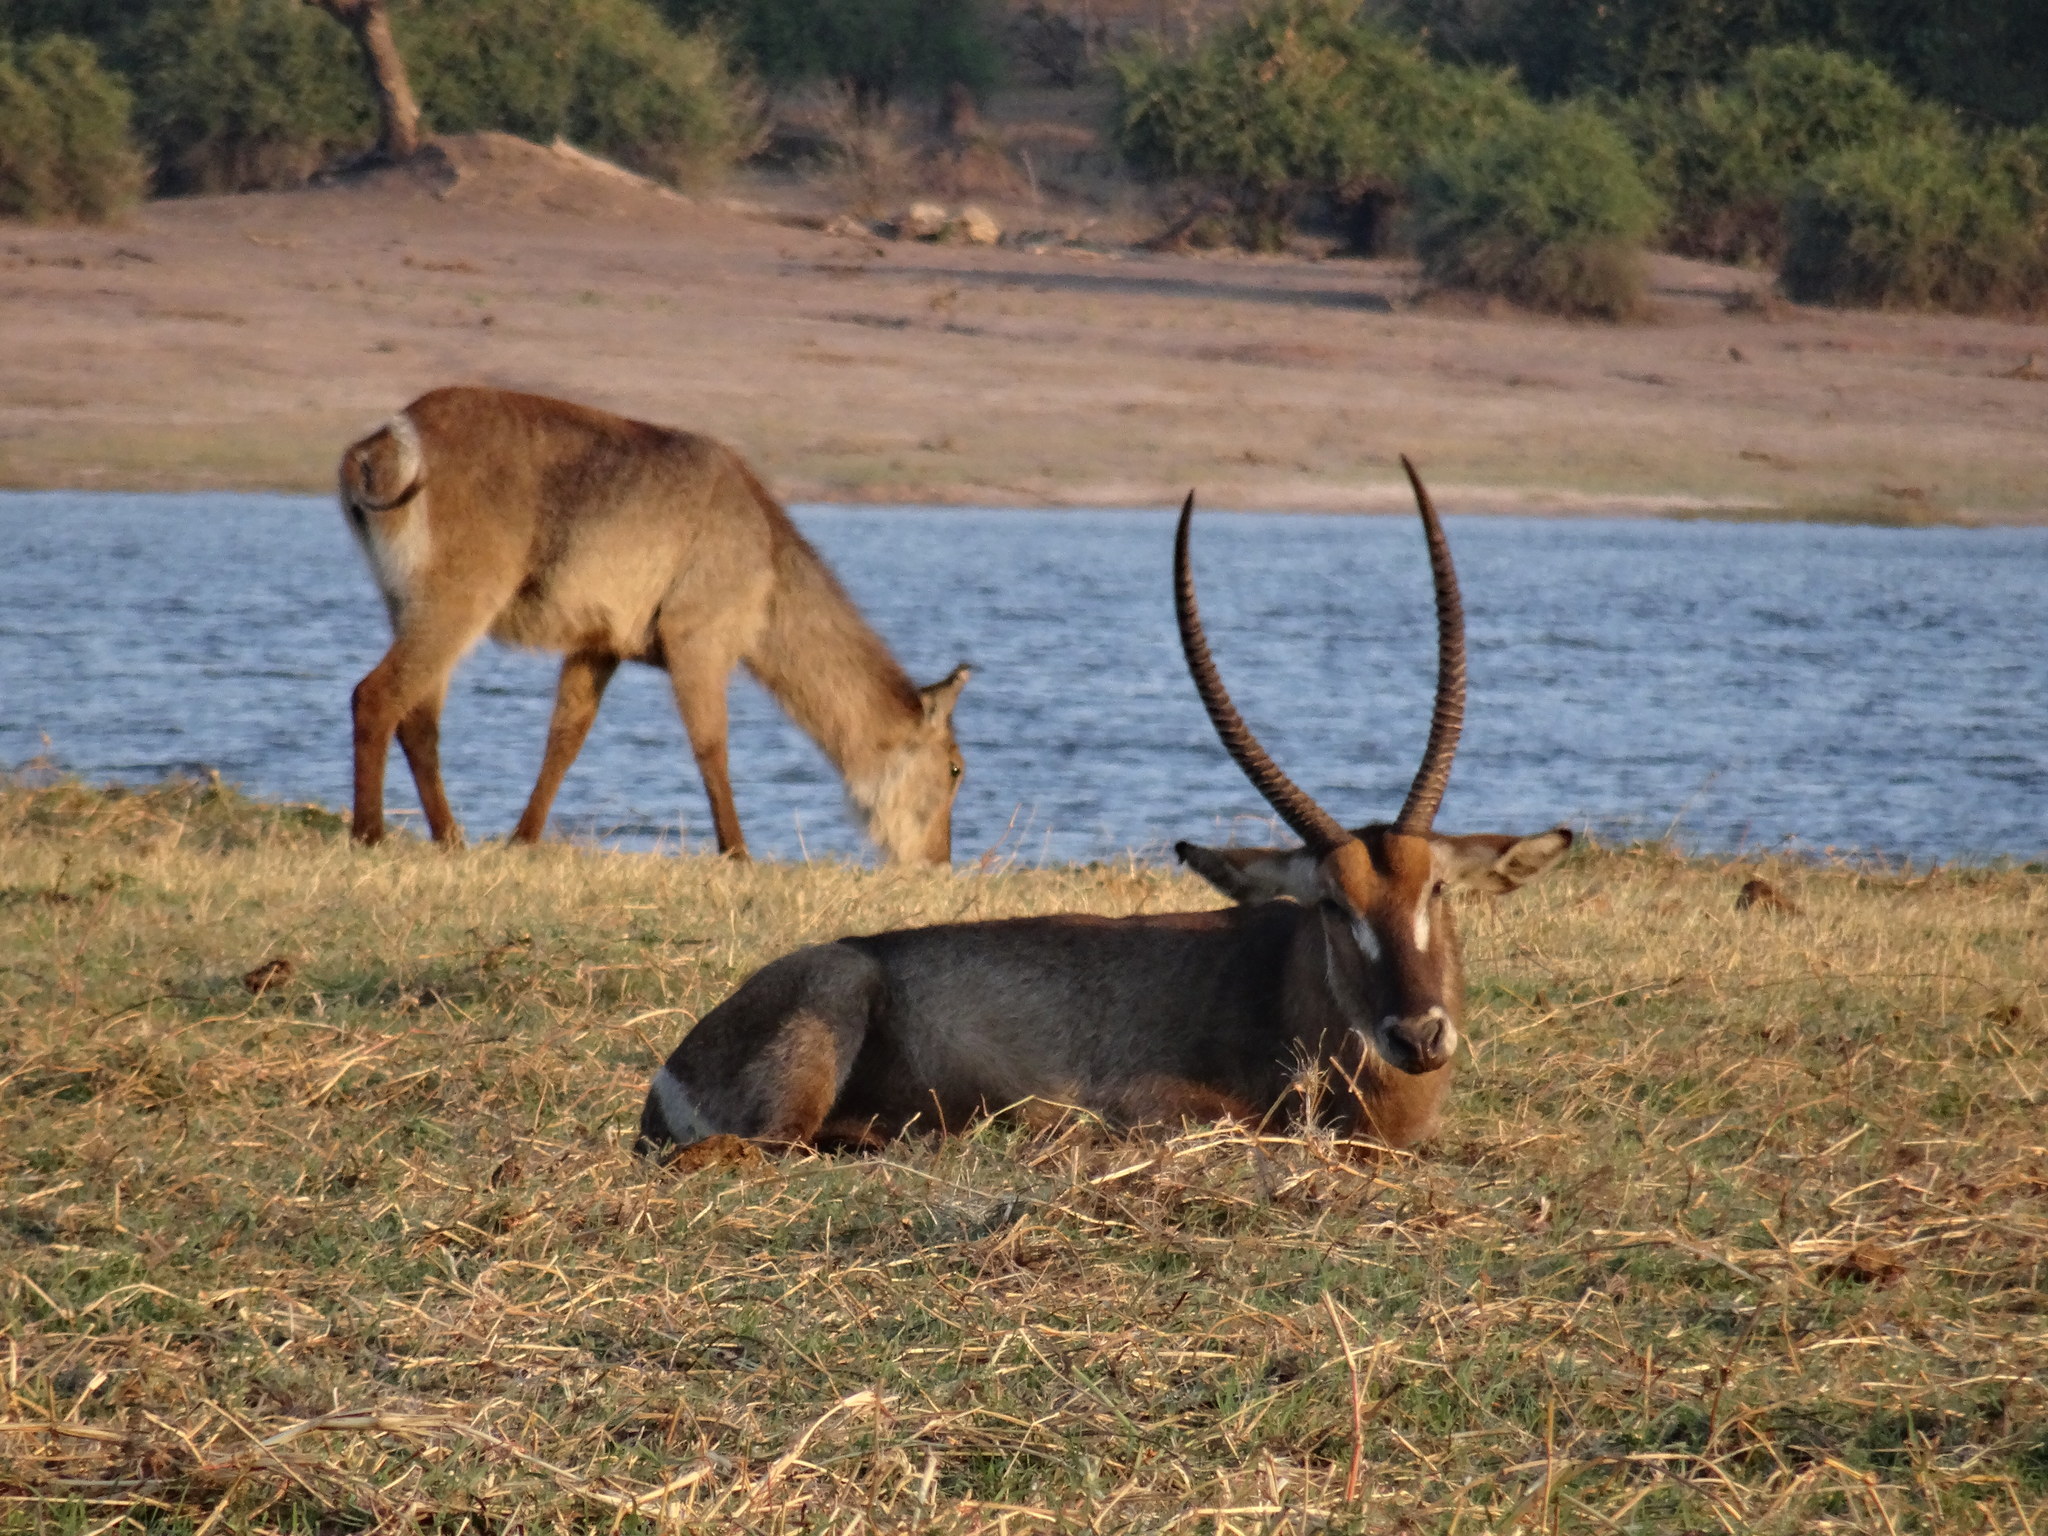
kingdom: Animalia
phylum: Chordata
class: Mammalia
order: Artiodactyla
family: Bovidae
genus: Kobus
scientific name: Kobus ellipsiprymnus
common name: Waterbuck
